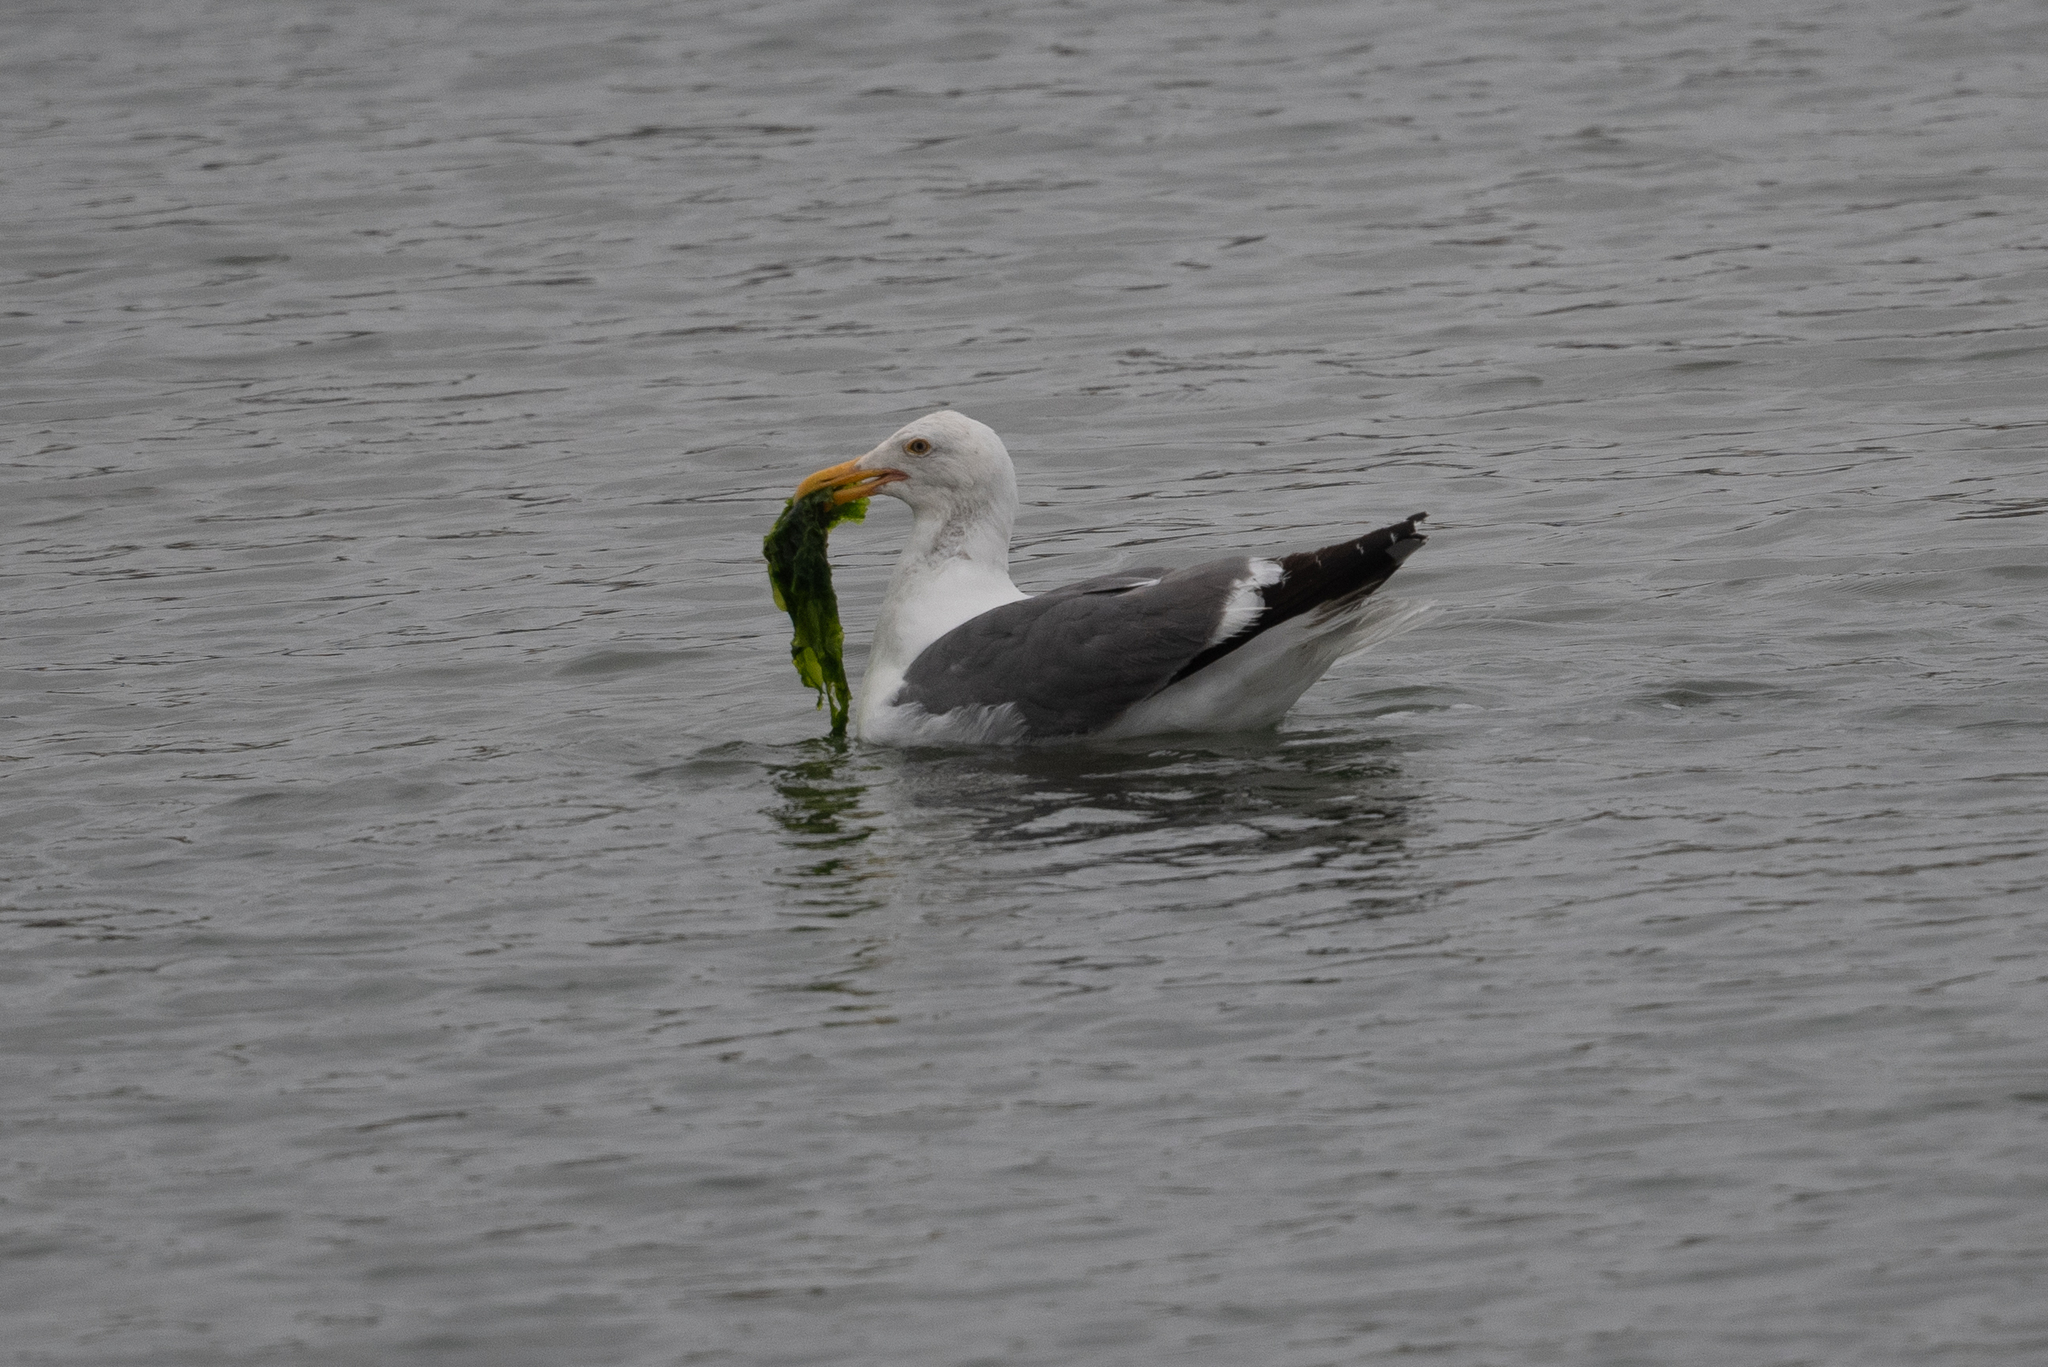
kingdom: Animalia
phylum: Chordata
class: Aves
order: Charadriiformes
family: Laridae
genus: Larus
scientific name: Larus occidentalis
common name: Western gull
